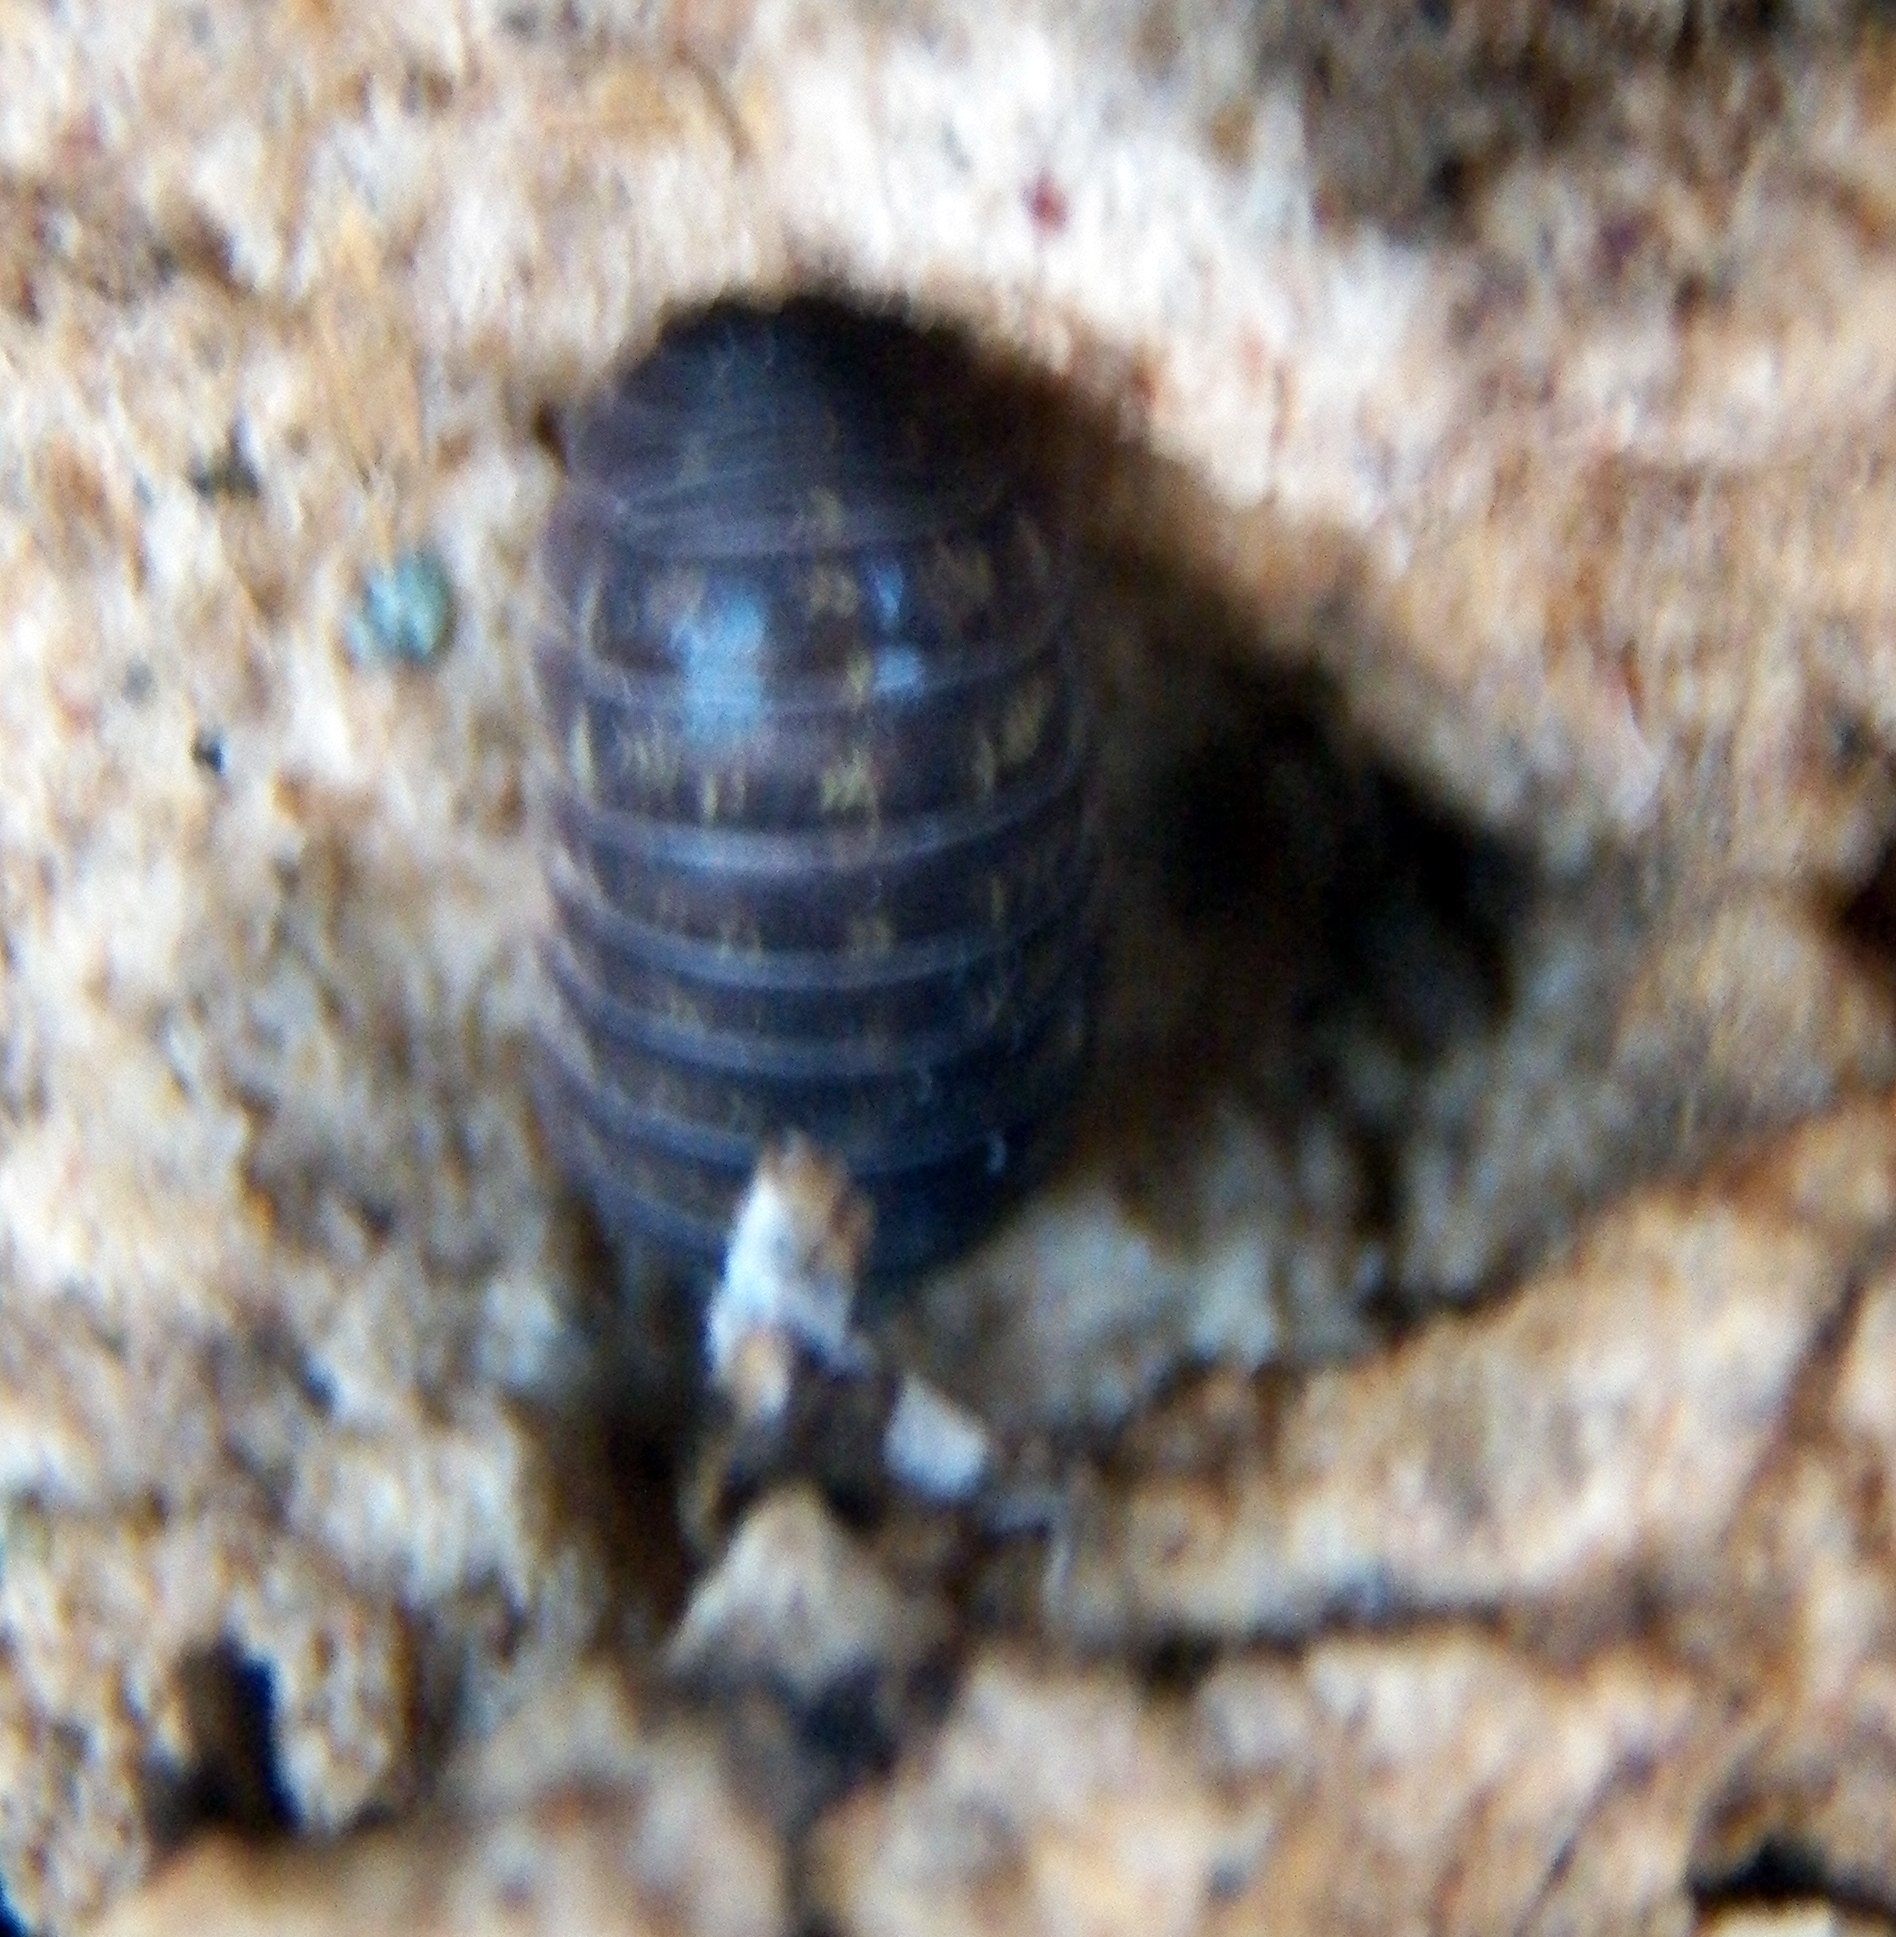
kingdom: Animalia
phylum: Arthropoda
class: Malacostraca
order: Isopoda
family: Armadillidiidae
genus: Armadillidium
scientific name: Armadillidium vulgare
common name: Common pill woodlouse
